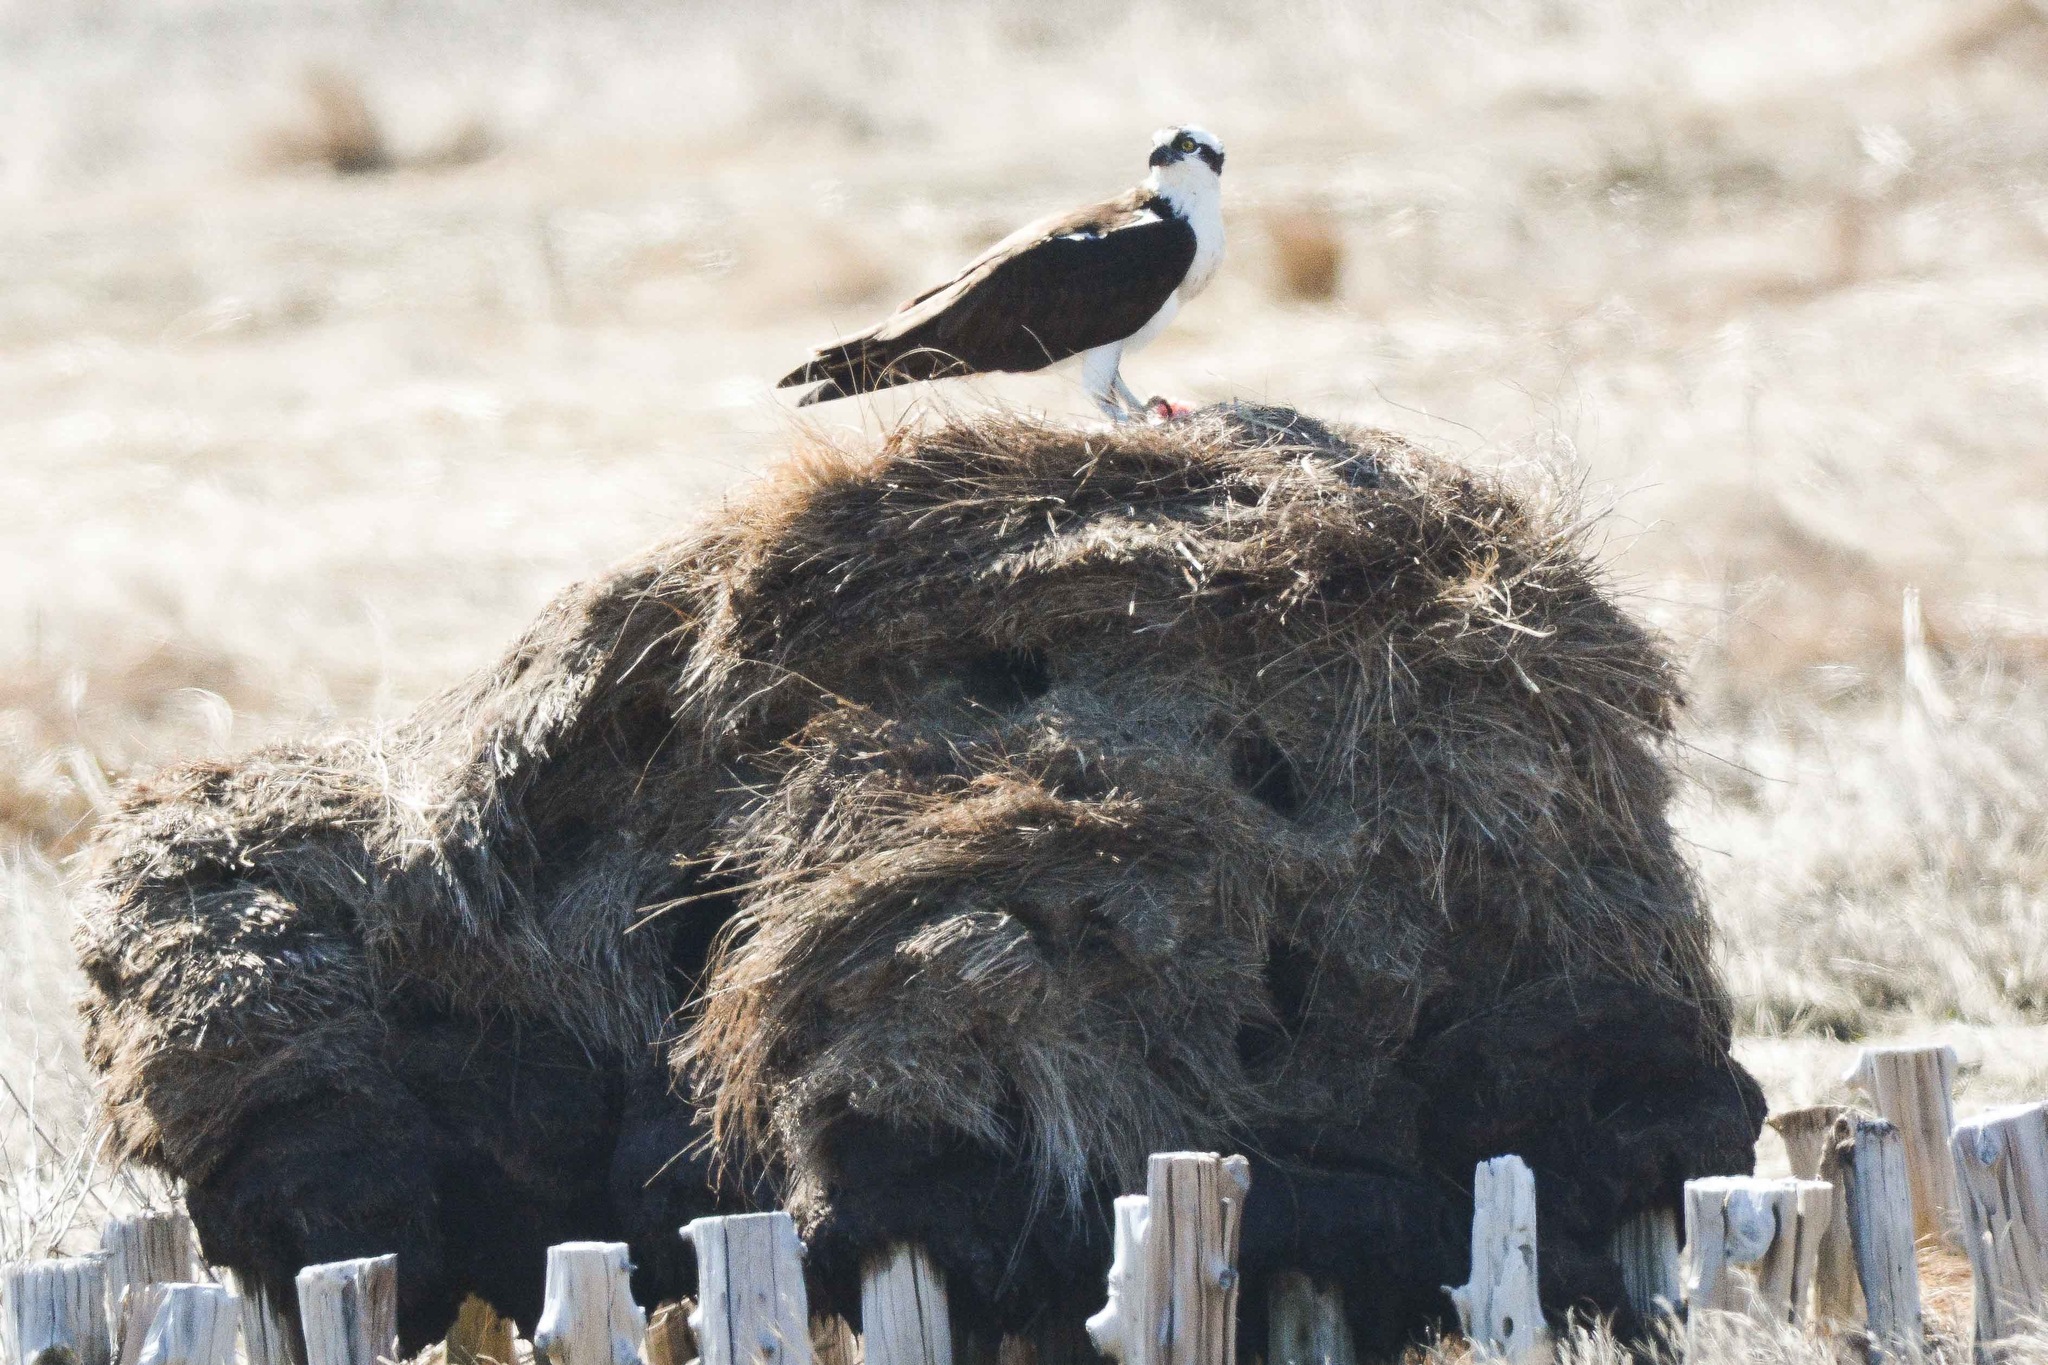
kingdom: Animalia
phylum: Chordata
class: Aves
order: Accipitriformes
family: Pandionidae
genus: Pandion
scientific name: Pandion haliaetus
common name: Osprey
